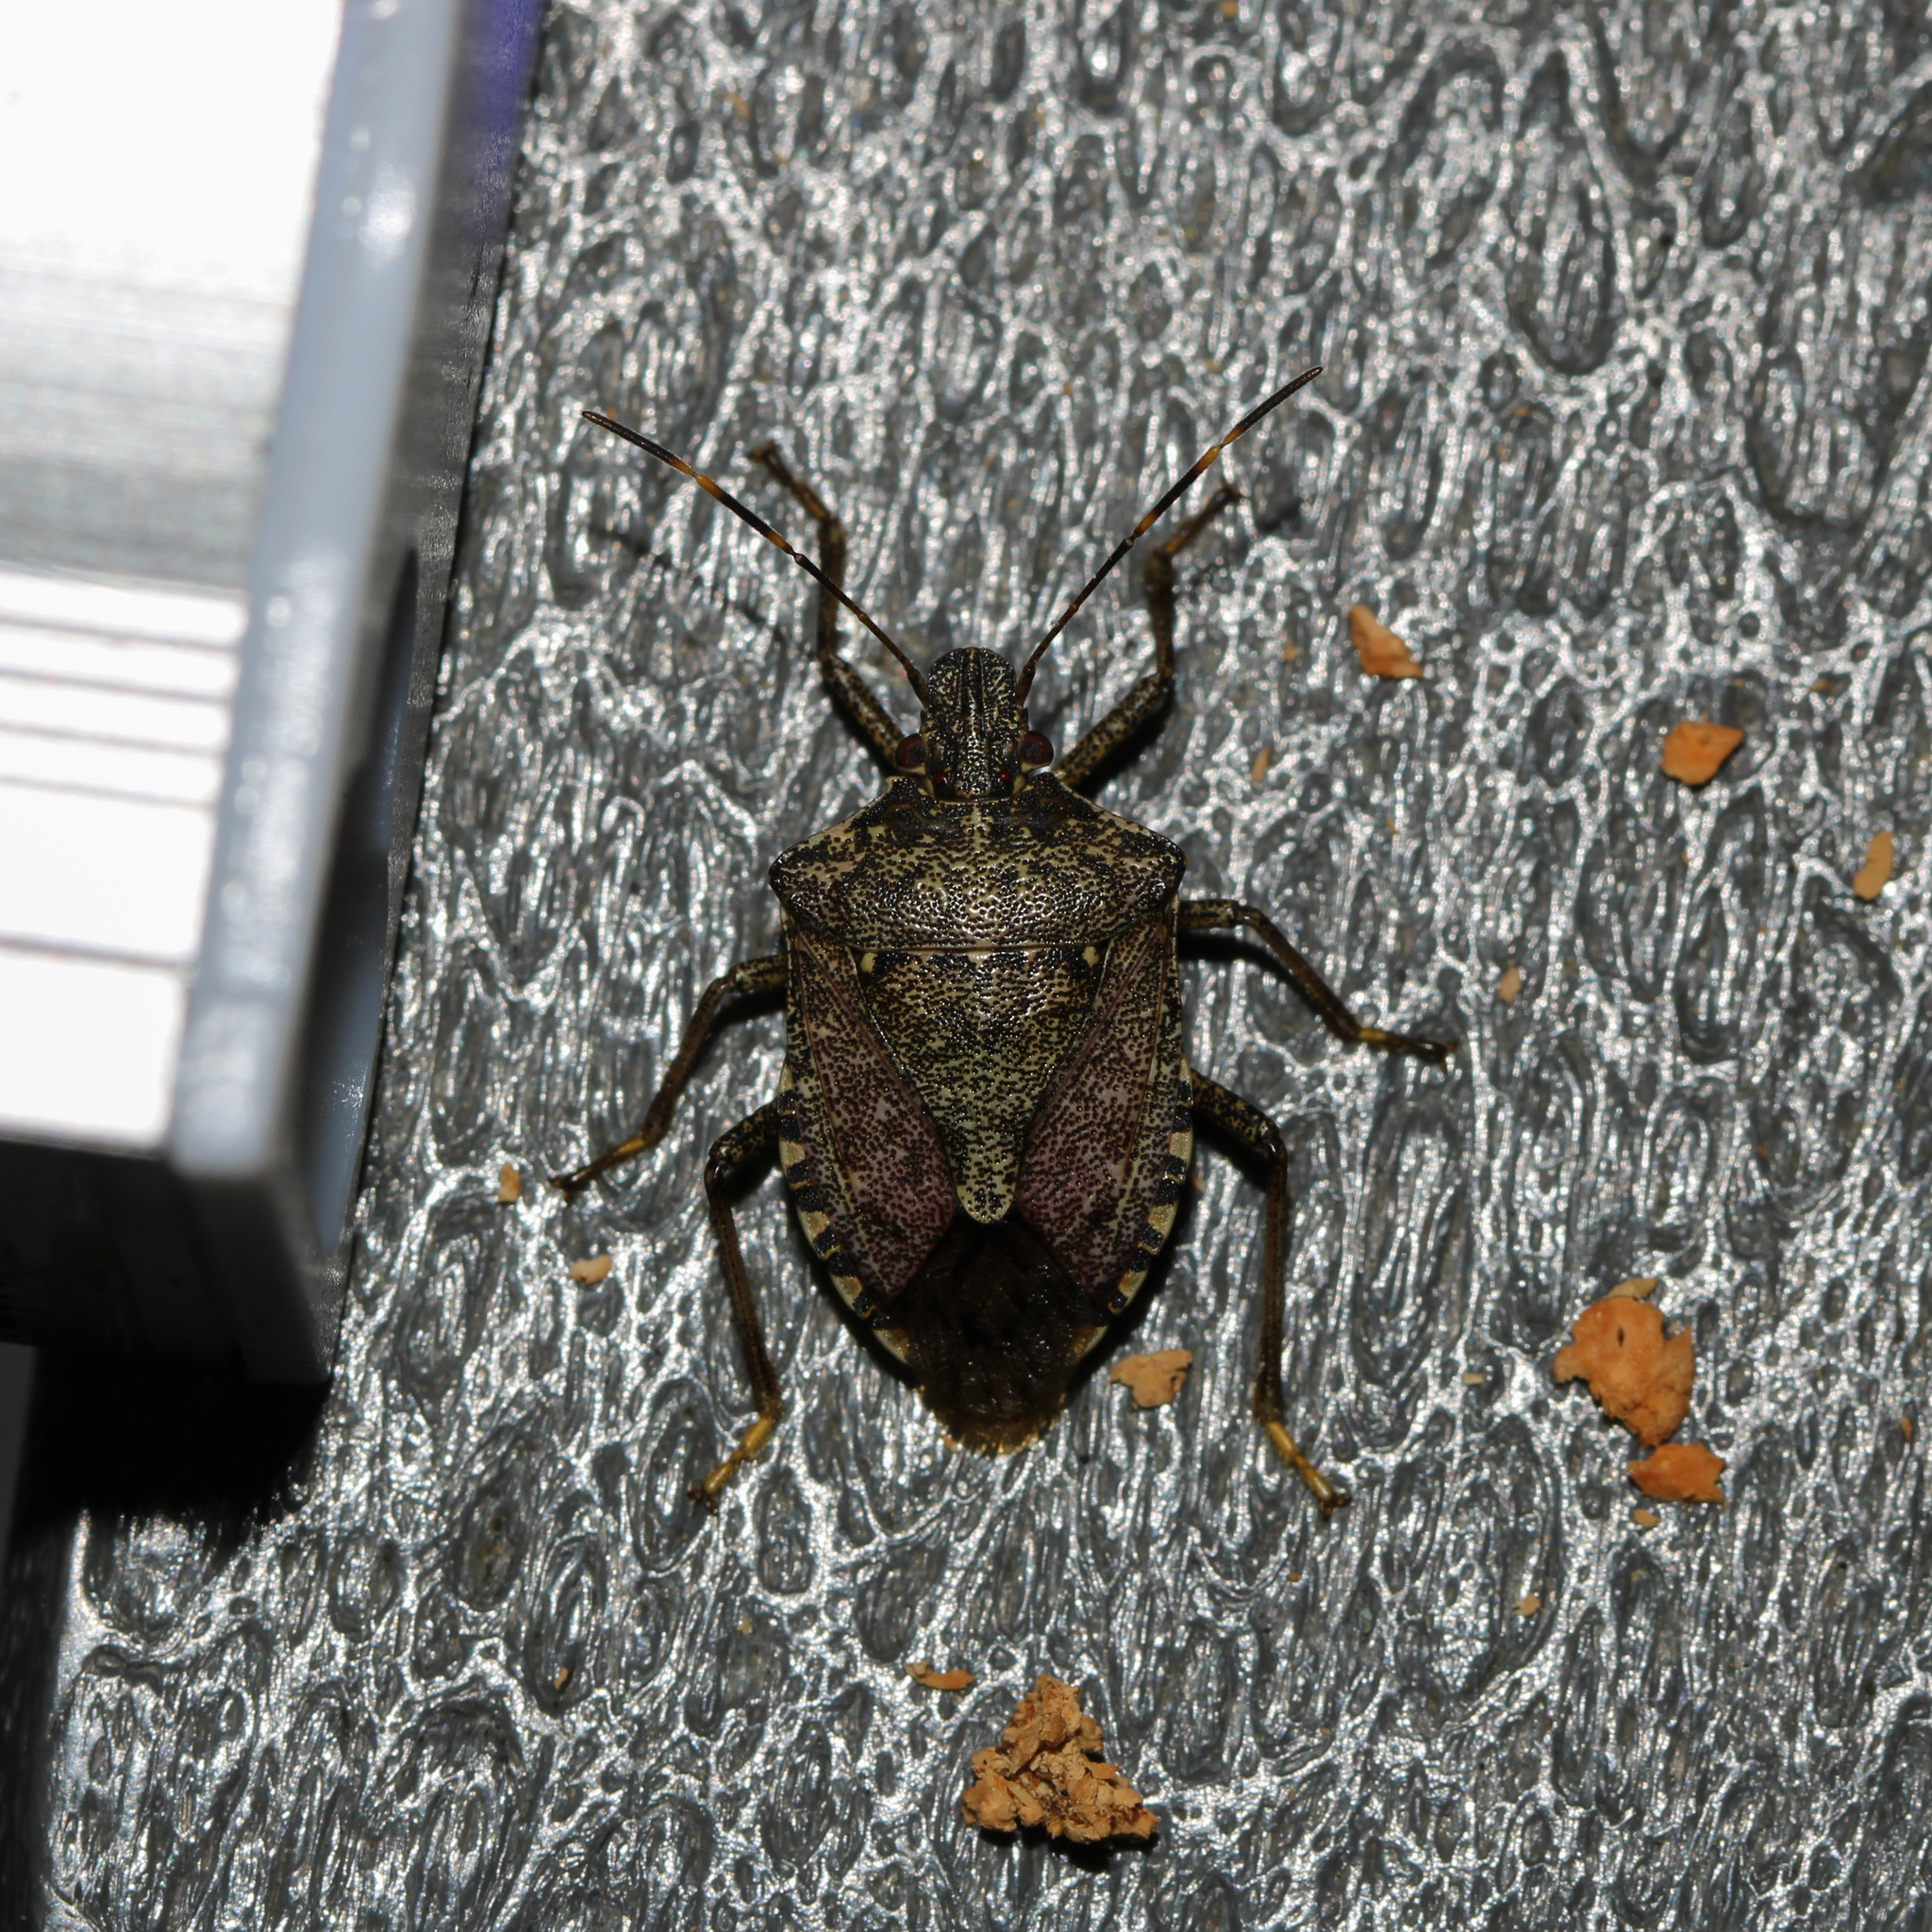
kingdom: Animalia
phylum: Arthropoda
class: Insecta
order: Hemiptera
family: Pentatomidae
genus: Halyomorpha
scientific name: Halyomorpha halys
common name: Brown marmorated stink bug
